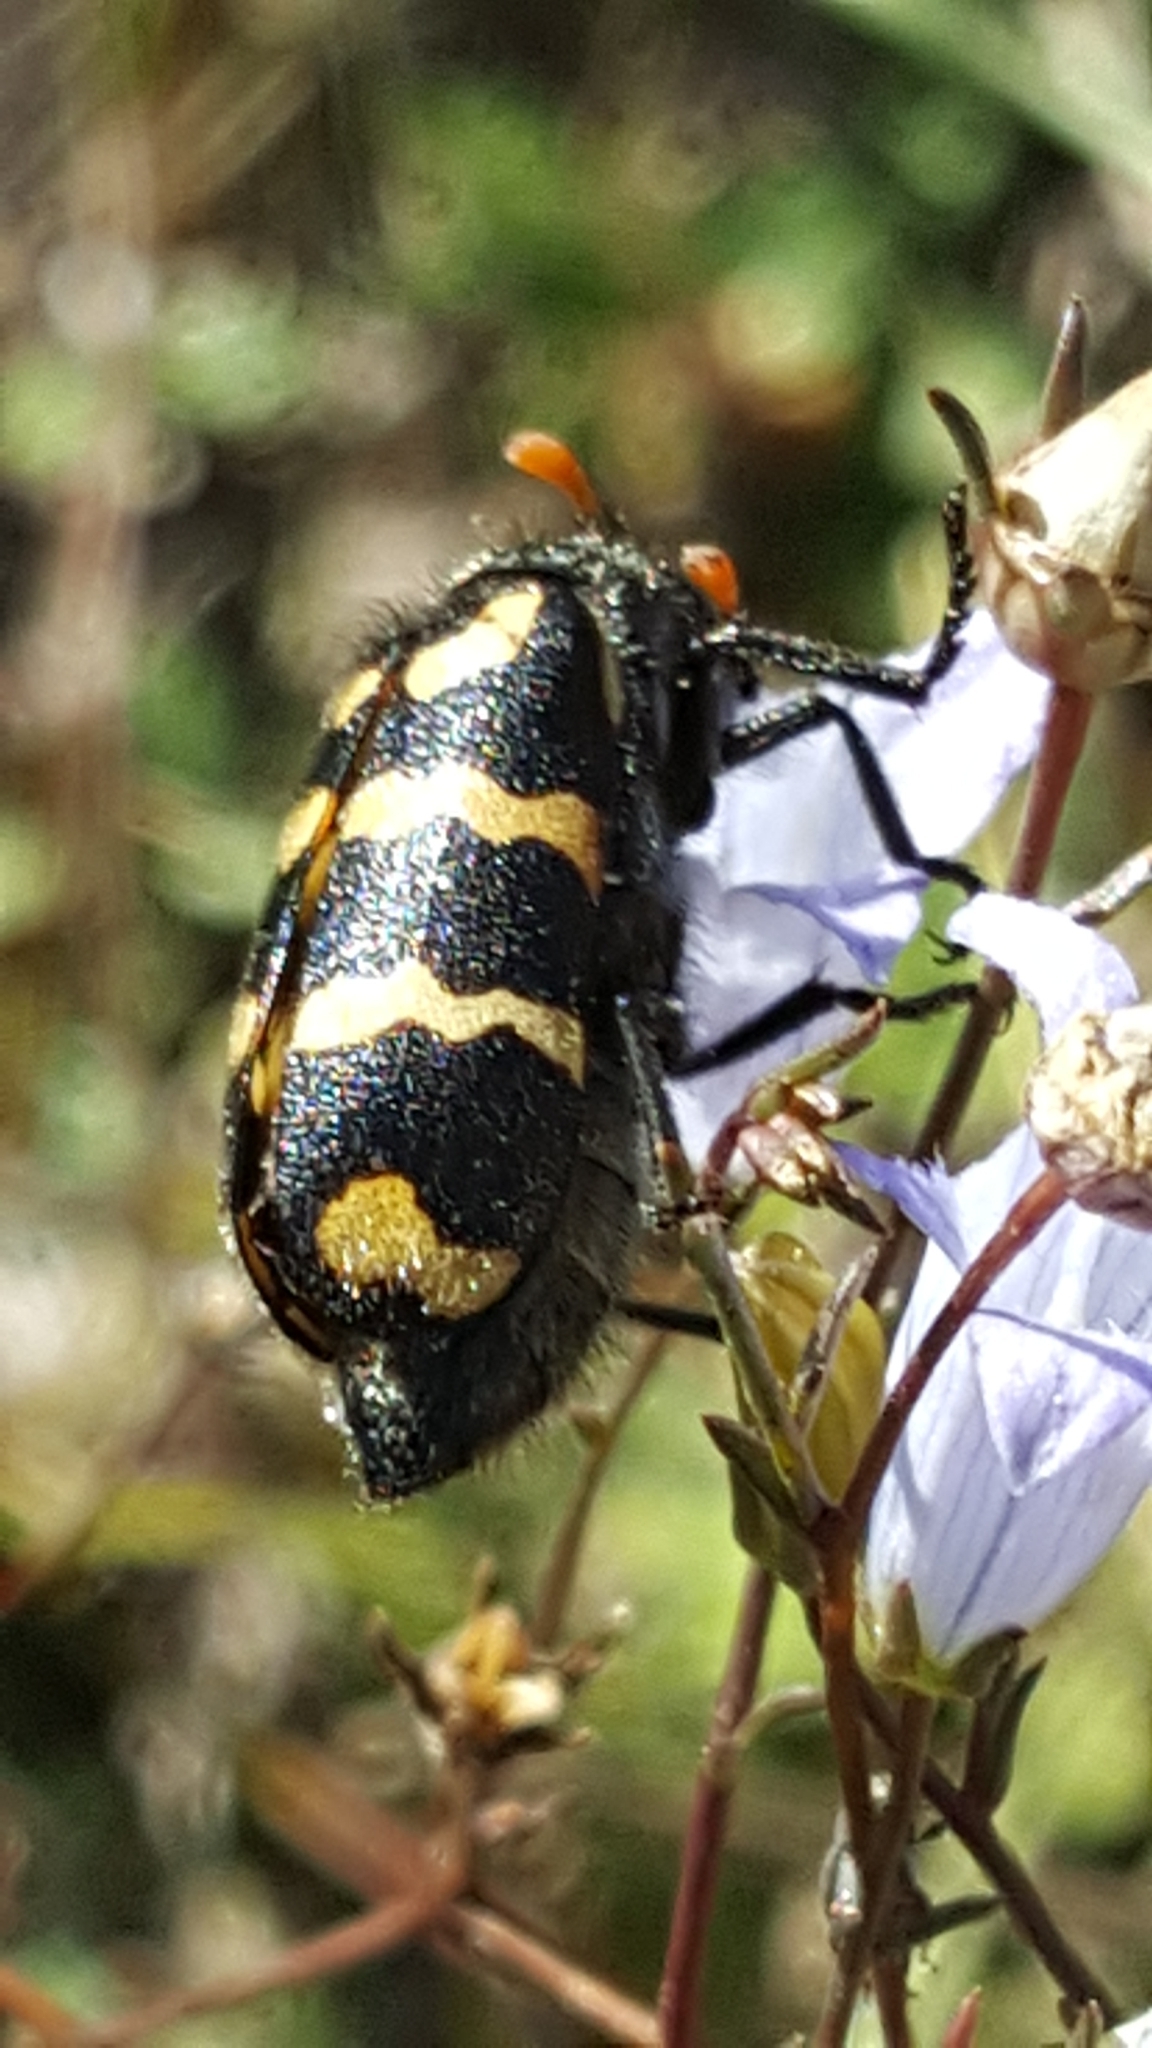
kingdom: Animalia
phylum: Arthropoda
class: Insecta
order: Coleoptera
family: Meloidae
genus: Hycleus
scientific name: Hycleus pilosus
